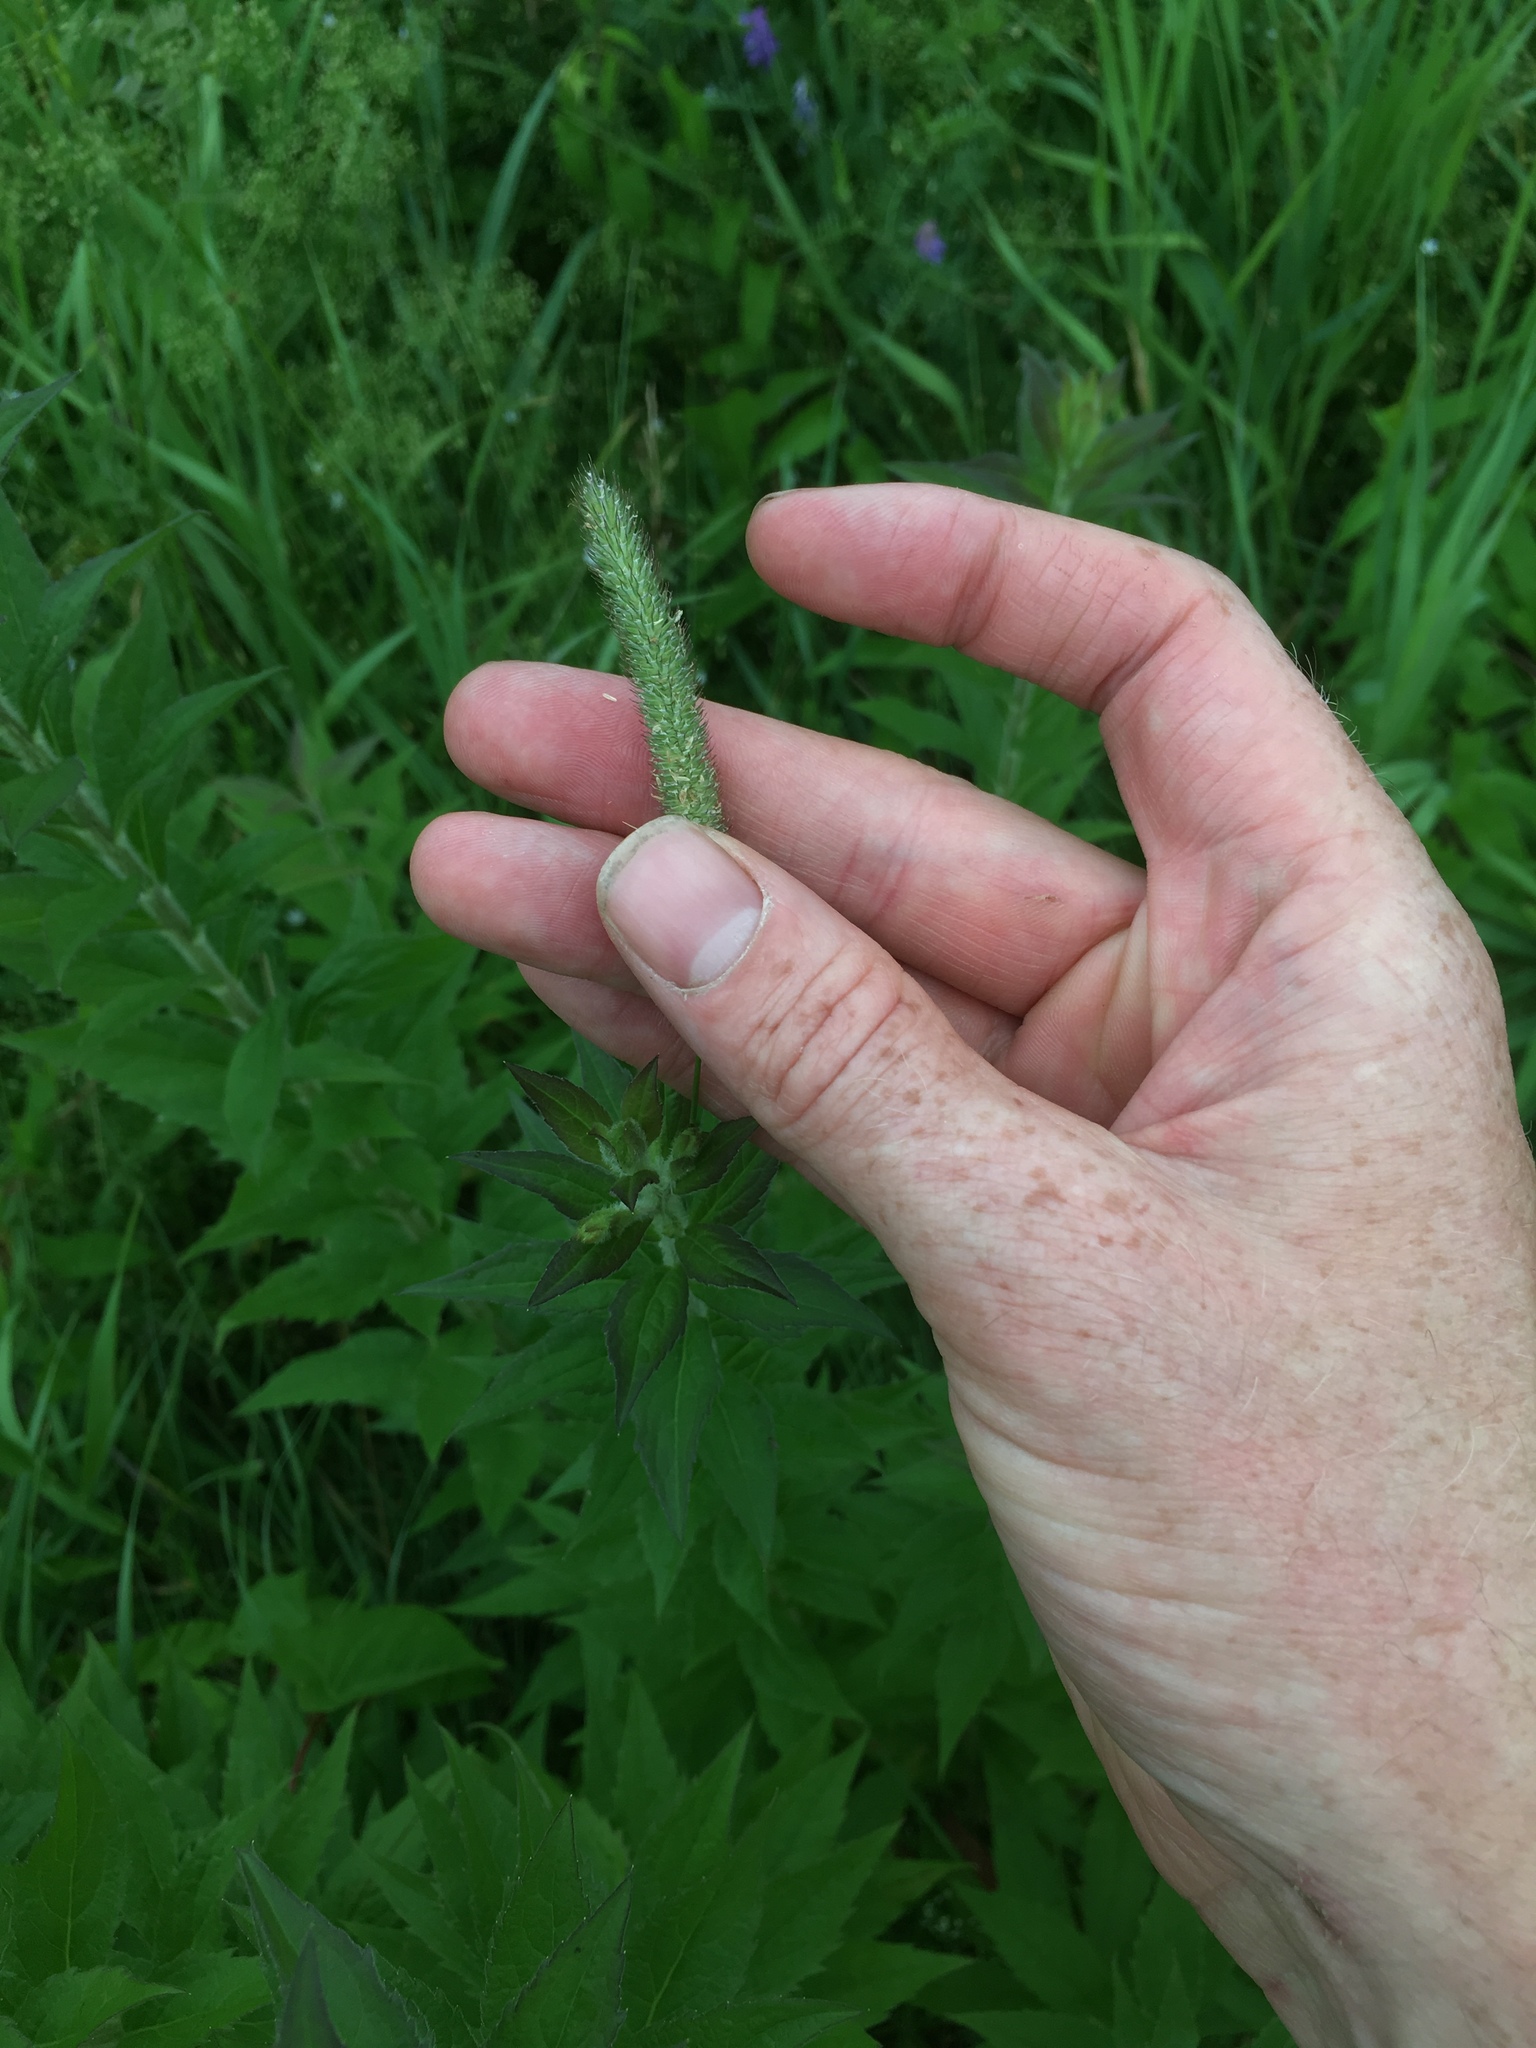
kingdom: Plantae
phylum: Tracheophyta
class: Liliopsida
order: Poales
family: Poaceae
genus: Phleum
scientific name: Phleum pratense
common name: Timothy grass
